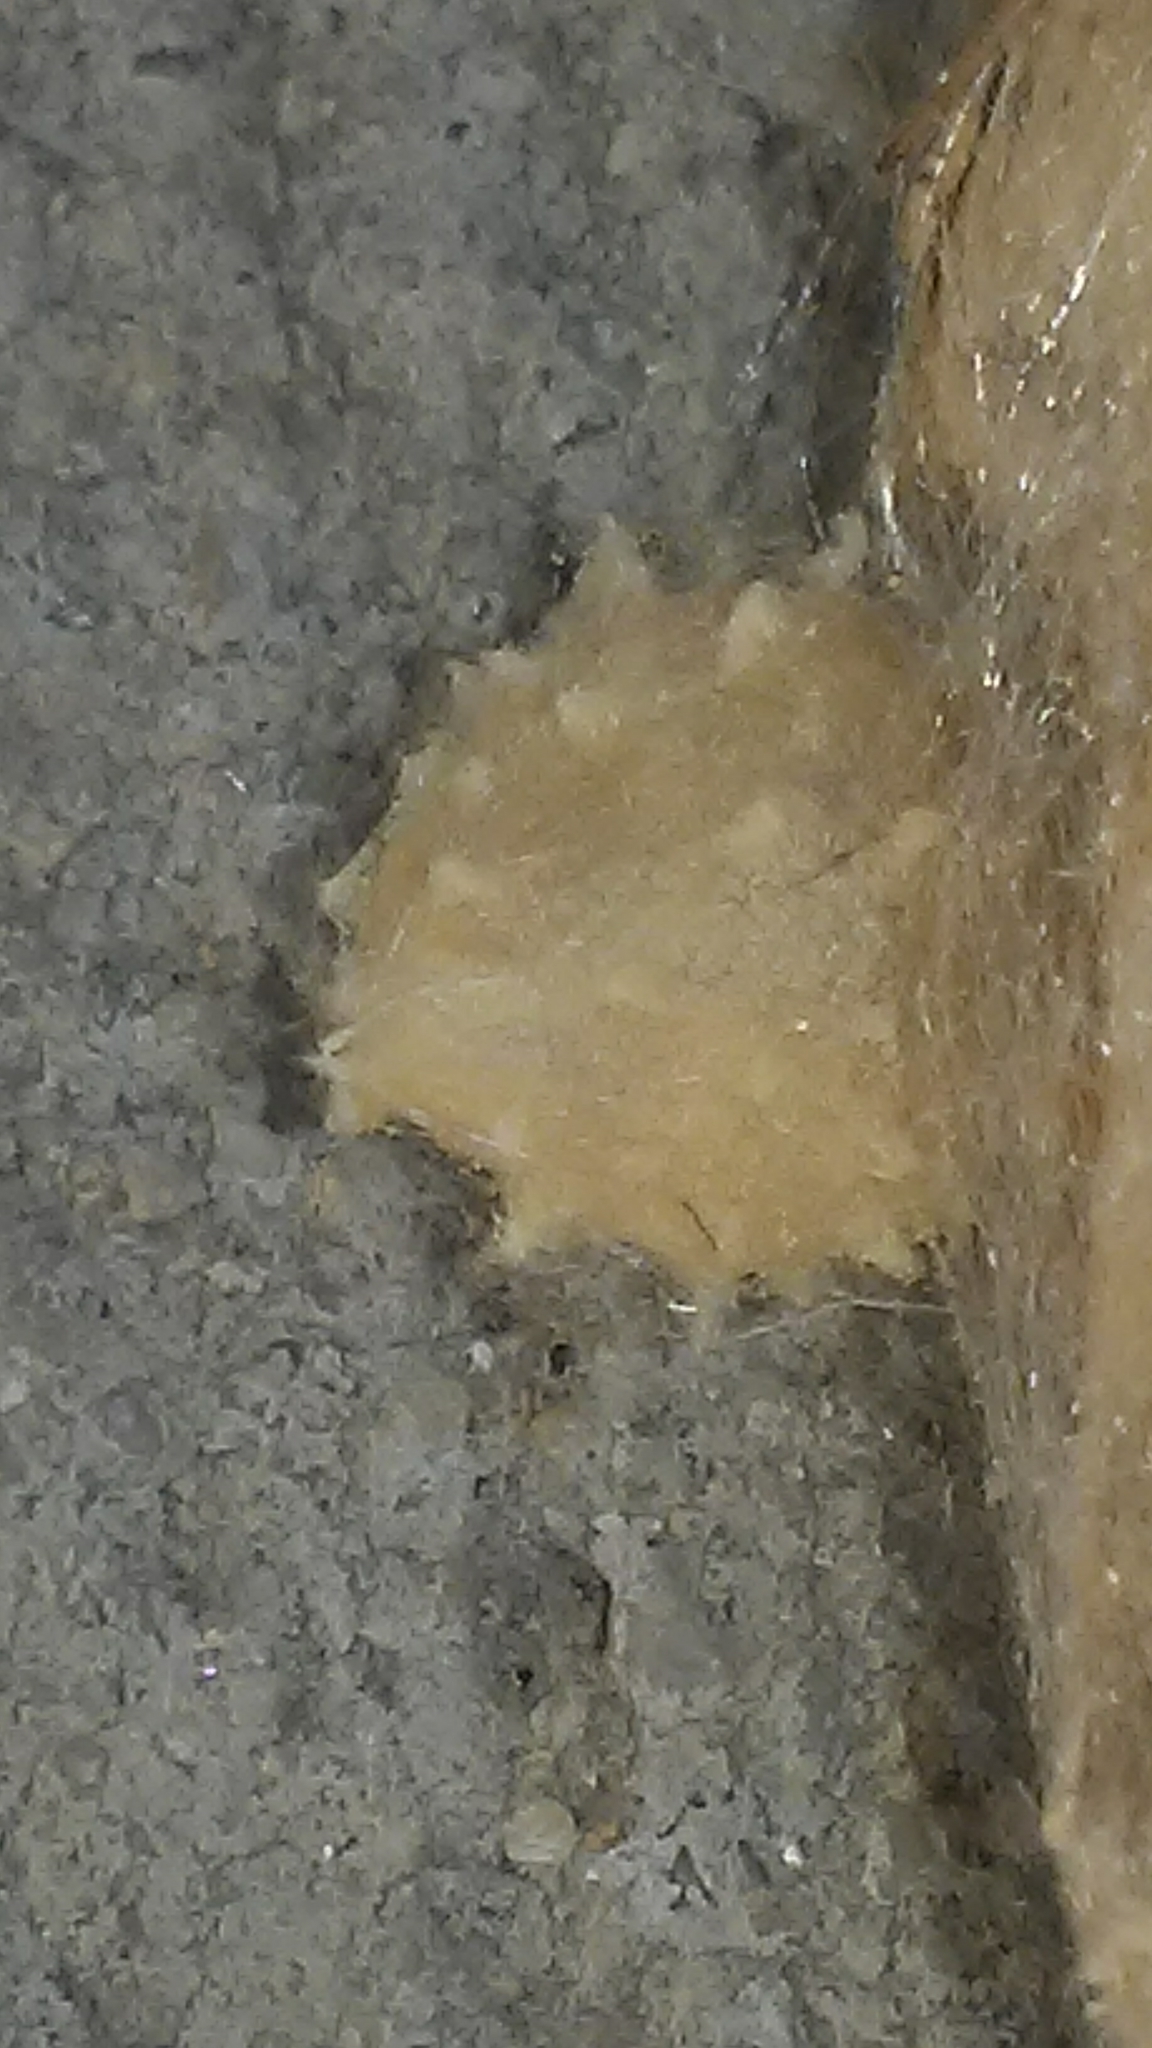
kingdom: Animalia
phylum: Arthropoda
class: Arachnida
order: Araneae
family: Theridiidae
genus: Latrodectus
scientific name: Latrodectus geometricus
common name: Brown widow spider
